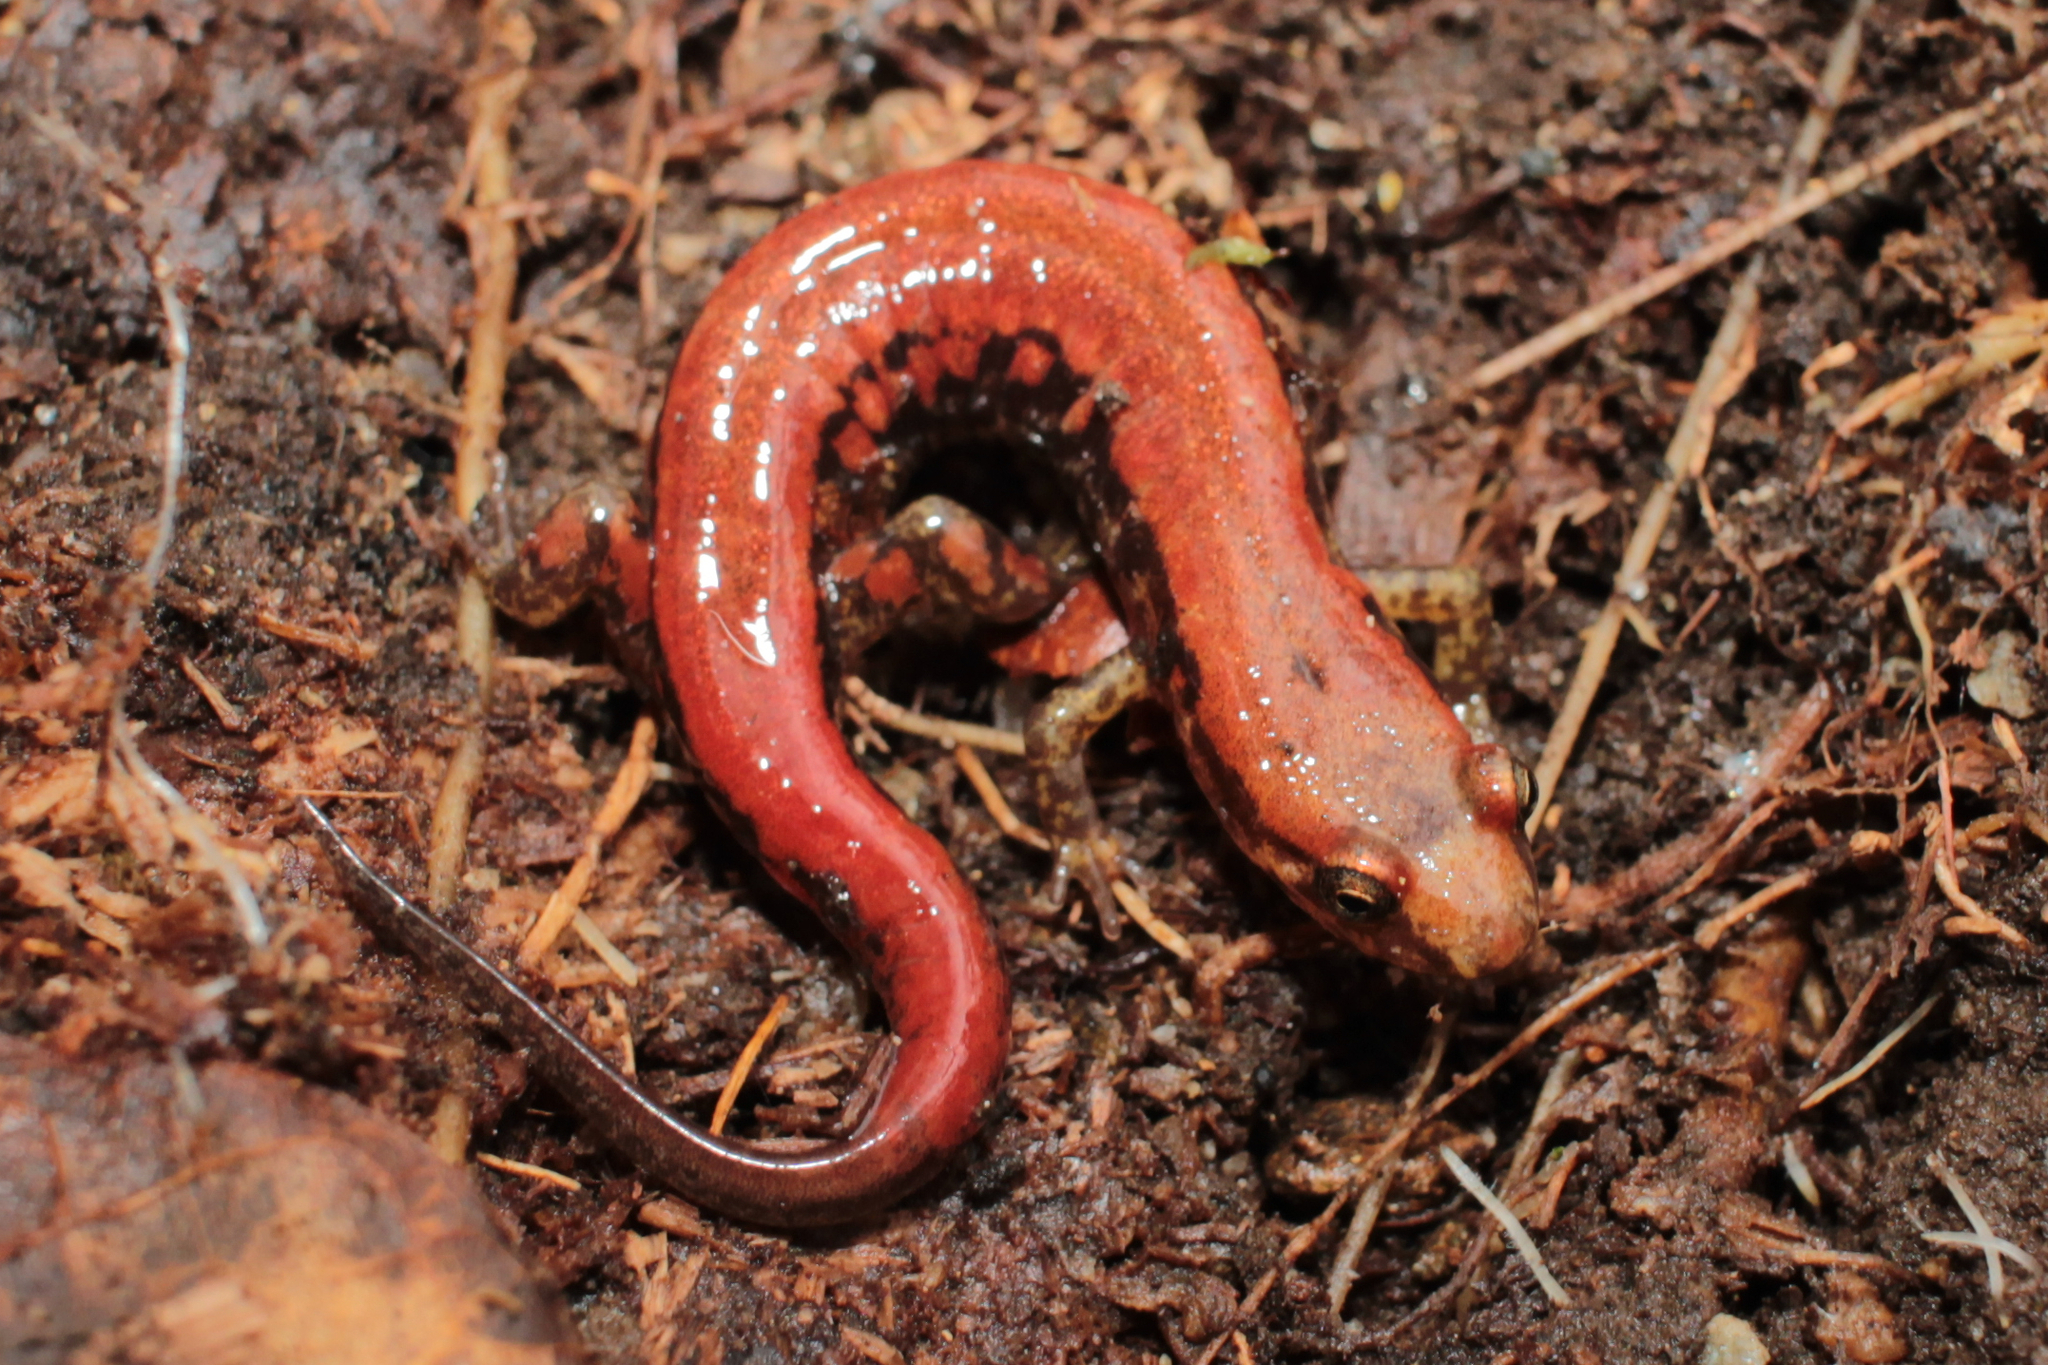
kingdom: Animalia
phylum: Chordata
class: Amphibia
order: Caudata
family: Plethodontidae
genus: Desmognathus
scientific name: Desmognathus orestes
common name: Blue ridge dusky salamander
